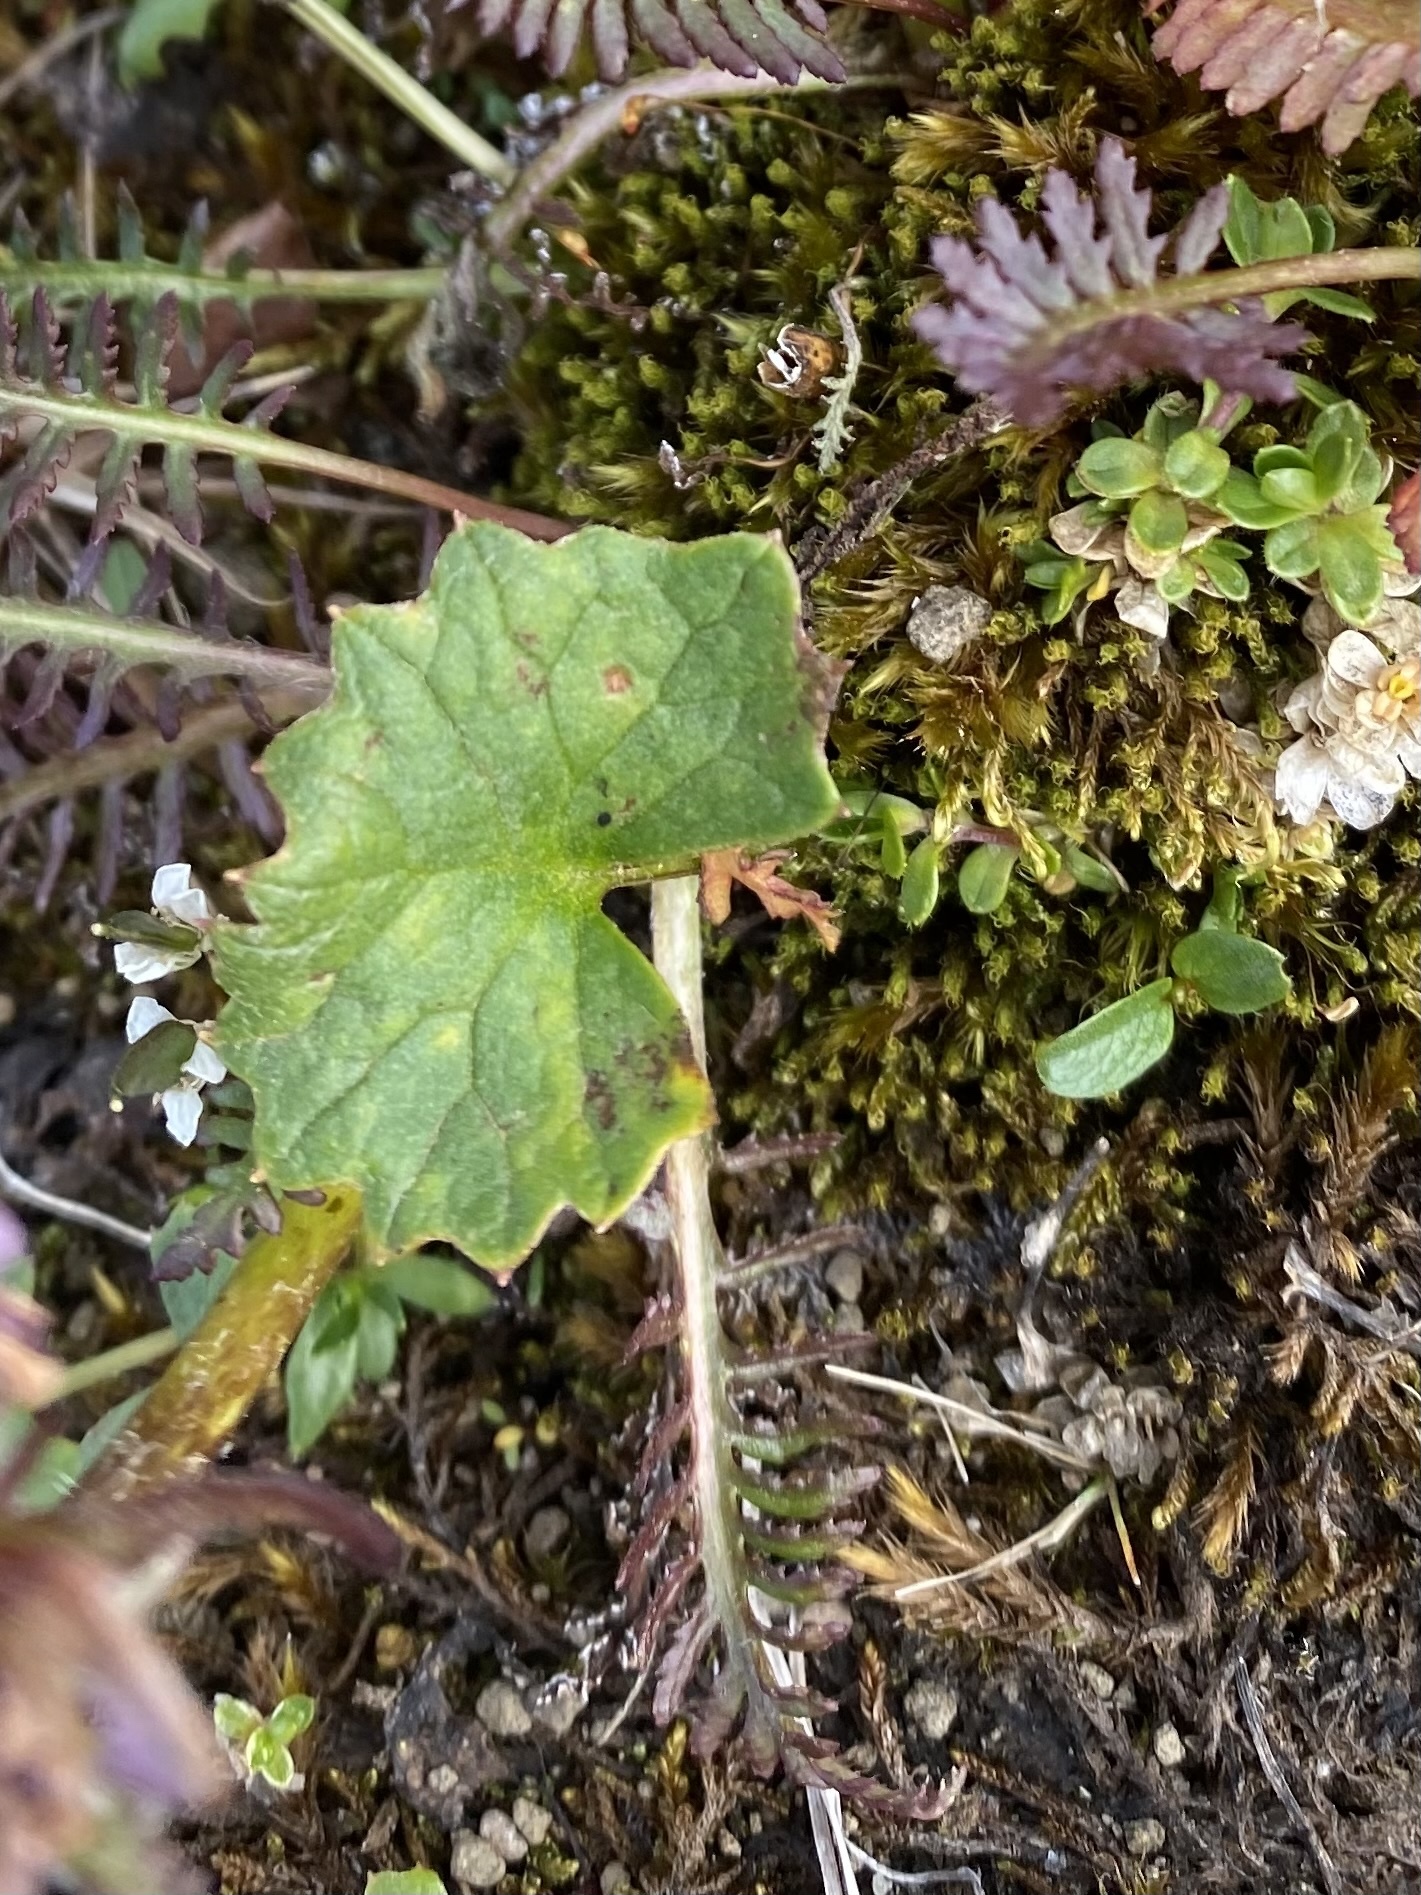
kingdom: Plantae
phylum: Tracheophyta
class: Magnoliopsida
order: Asterales
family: Asteraceae
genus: Endocellion
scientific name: Endocellion glaciale
